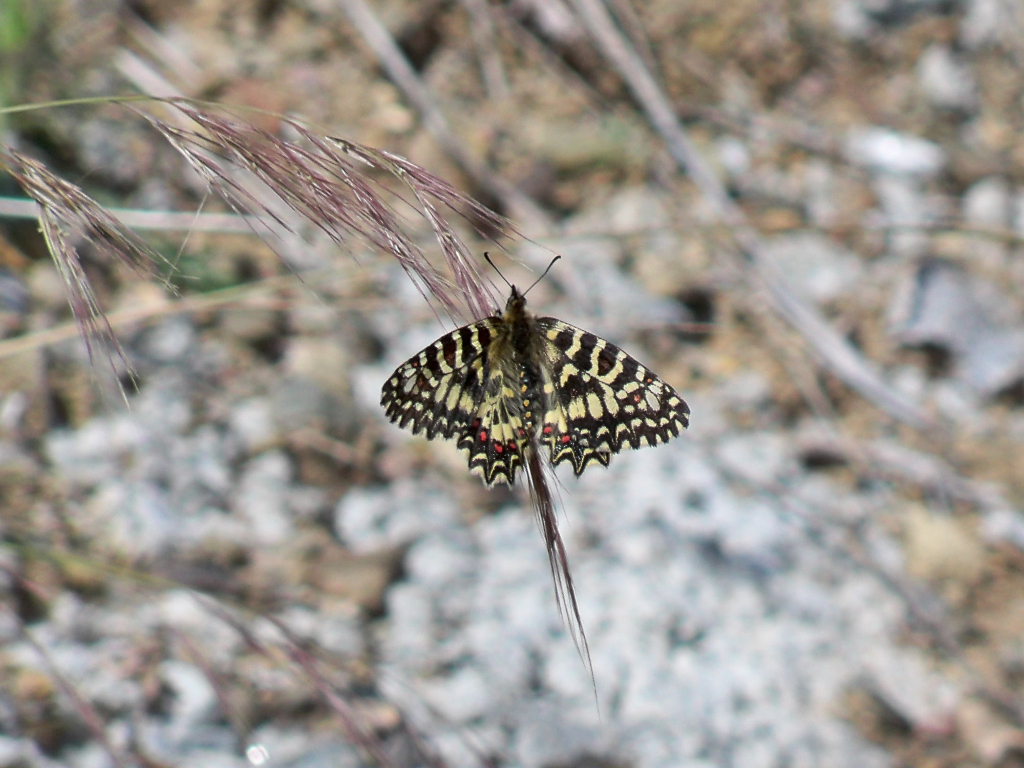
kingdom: Animalia
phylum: Arthropoda
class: Insecta
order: Lepidoptera
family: Papilionidae
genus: Zerynthia
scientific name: Zerynthia rumina
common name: Spanish festoon
